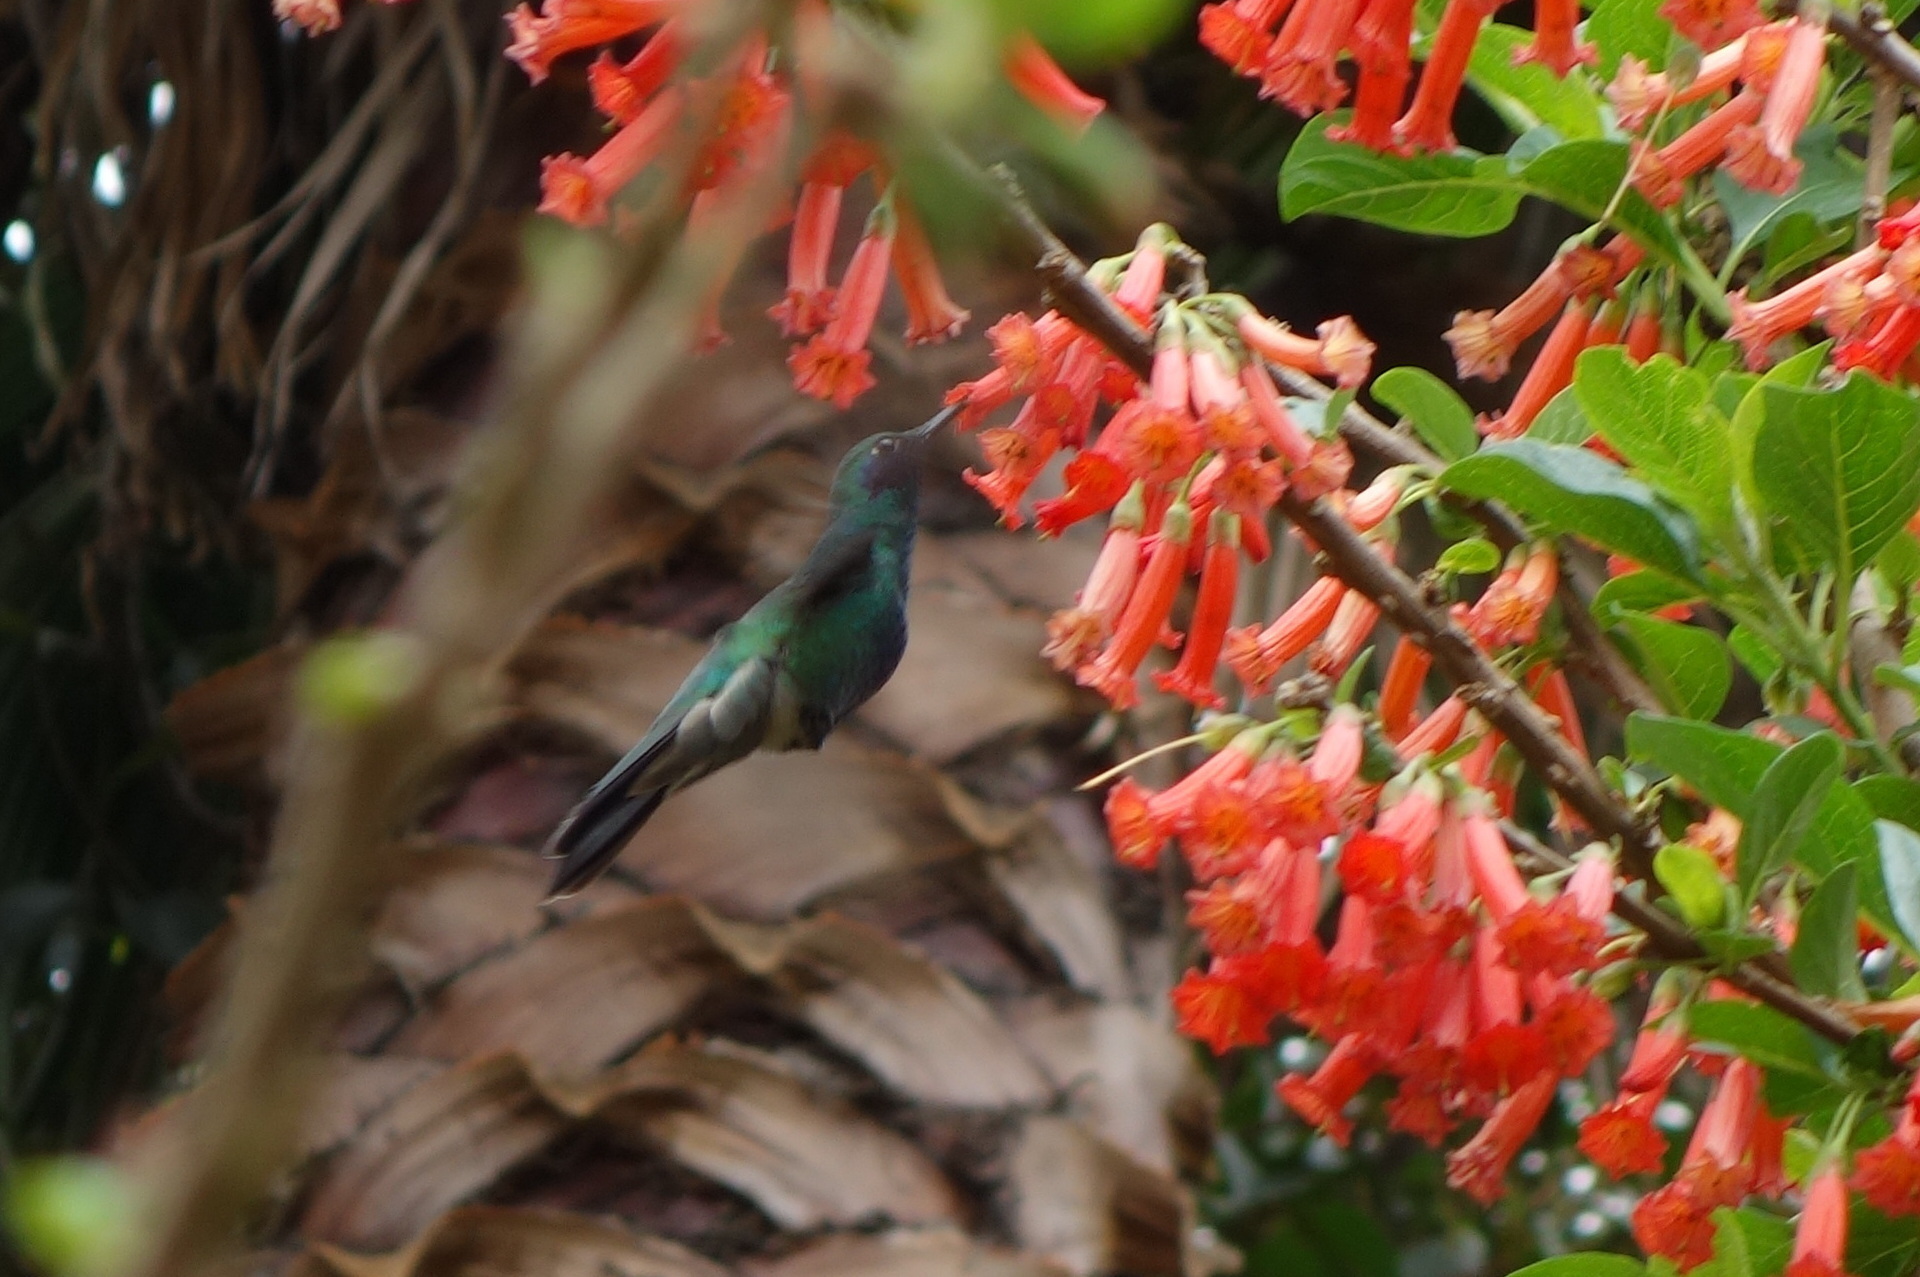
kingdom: Animalia
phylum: Chordata
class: Aves
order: Apodiformes
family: Trochilidae
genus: Colibri
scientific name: Colibri coruscans
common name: Sparkling violetear
